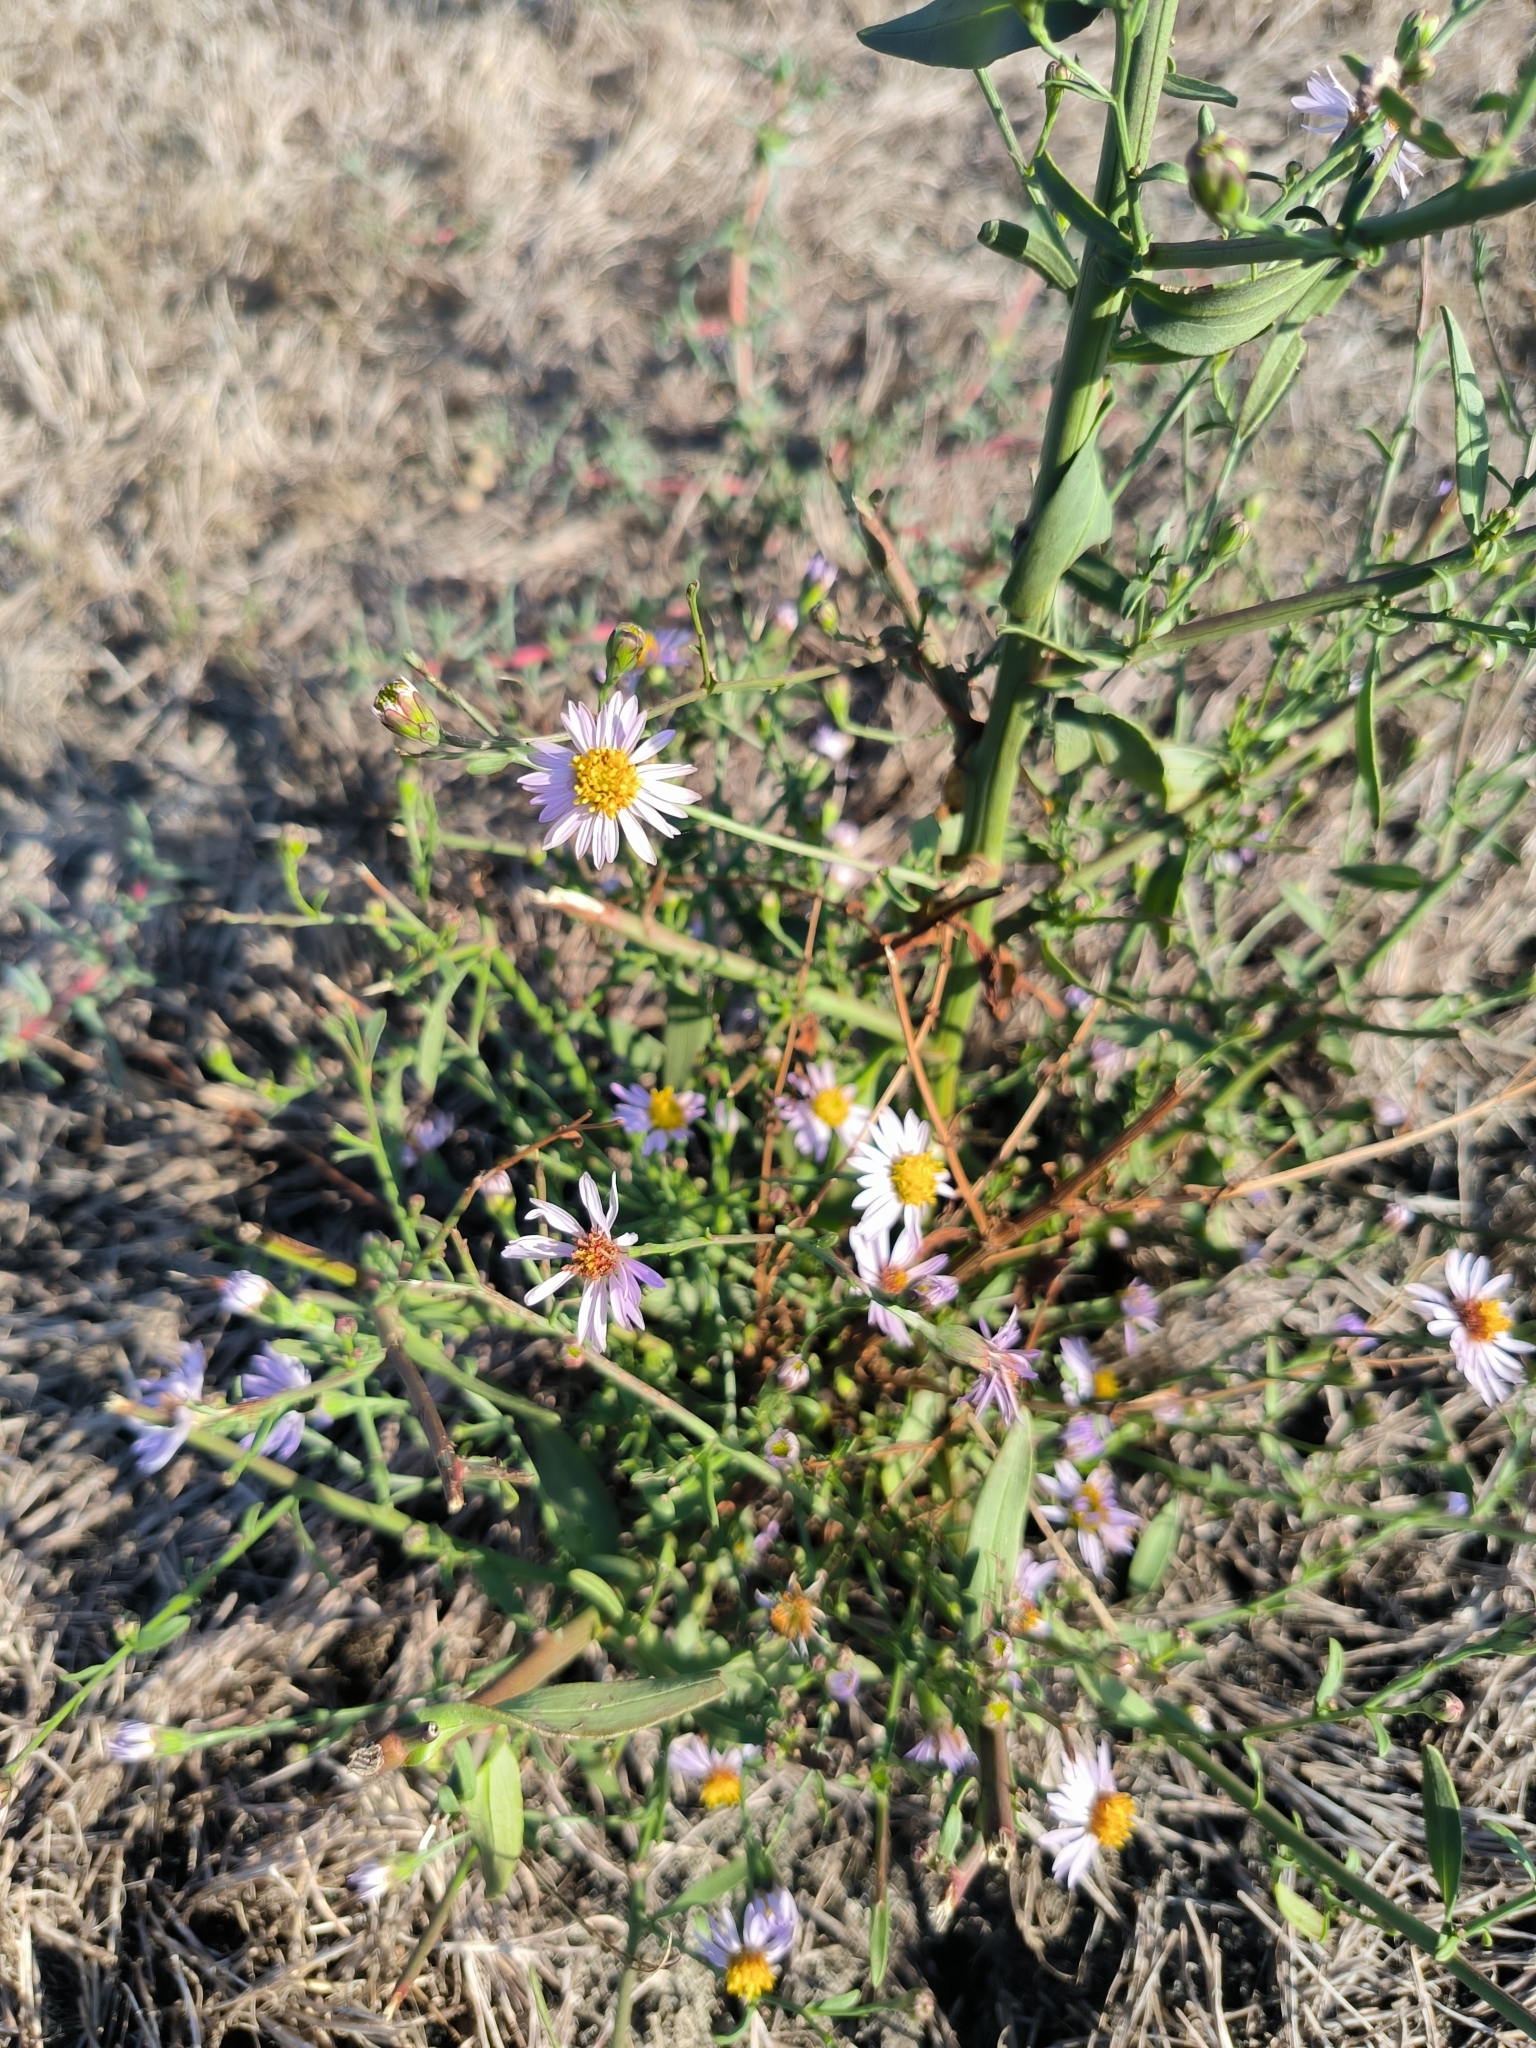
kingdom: Plantae
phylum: Tracheophyta
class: Magnoliopsida
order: Asterales
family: Asteraceae
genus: Tripolium
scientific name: Tripolium pannonicum
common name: Sea aster
